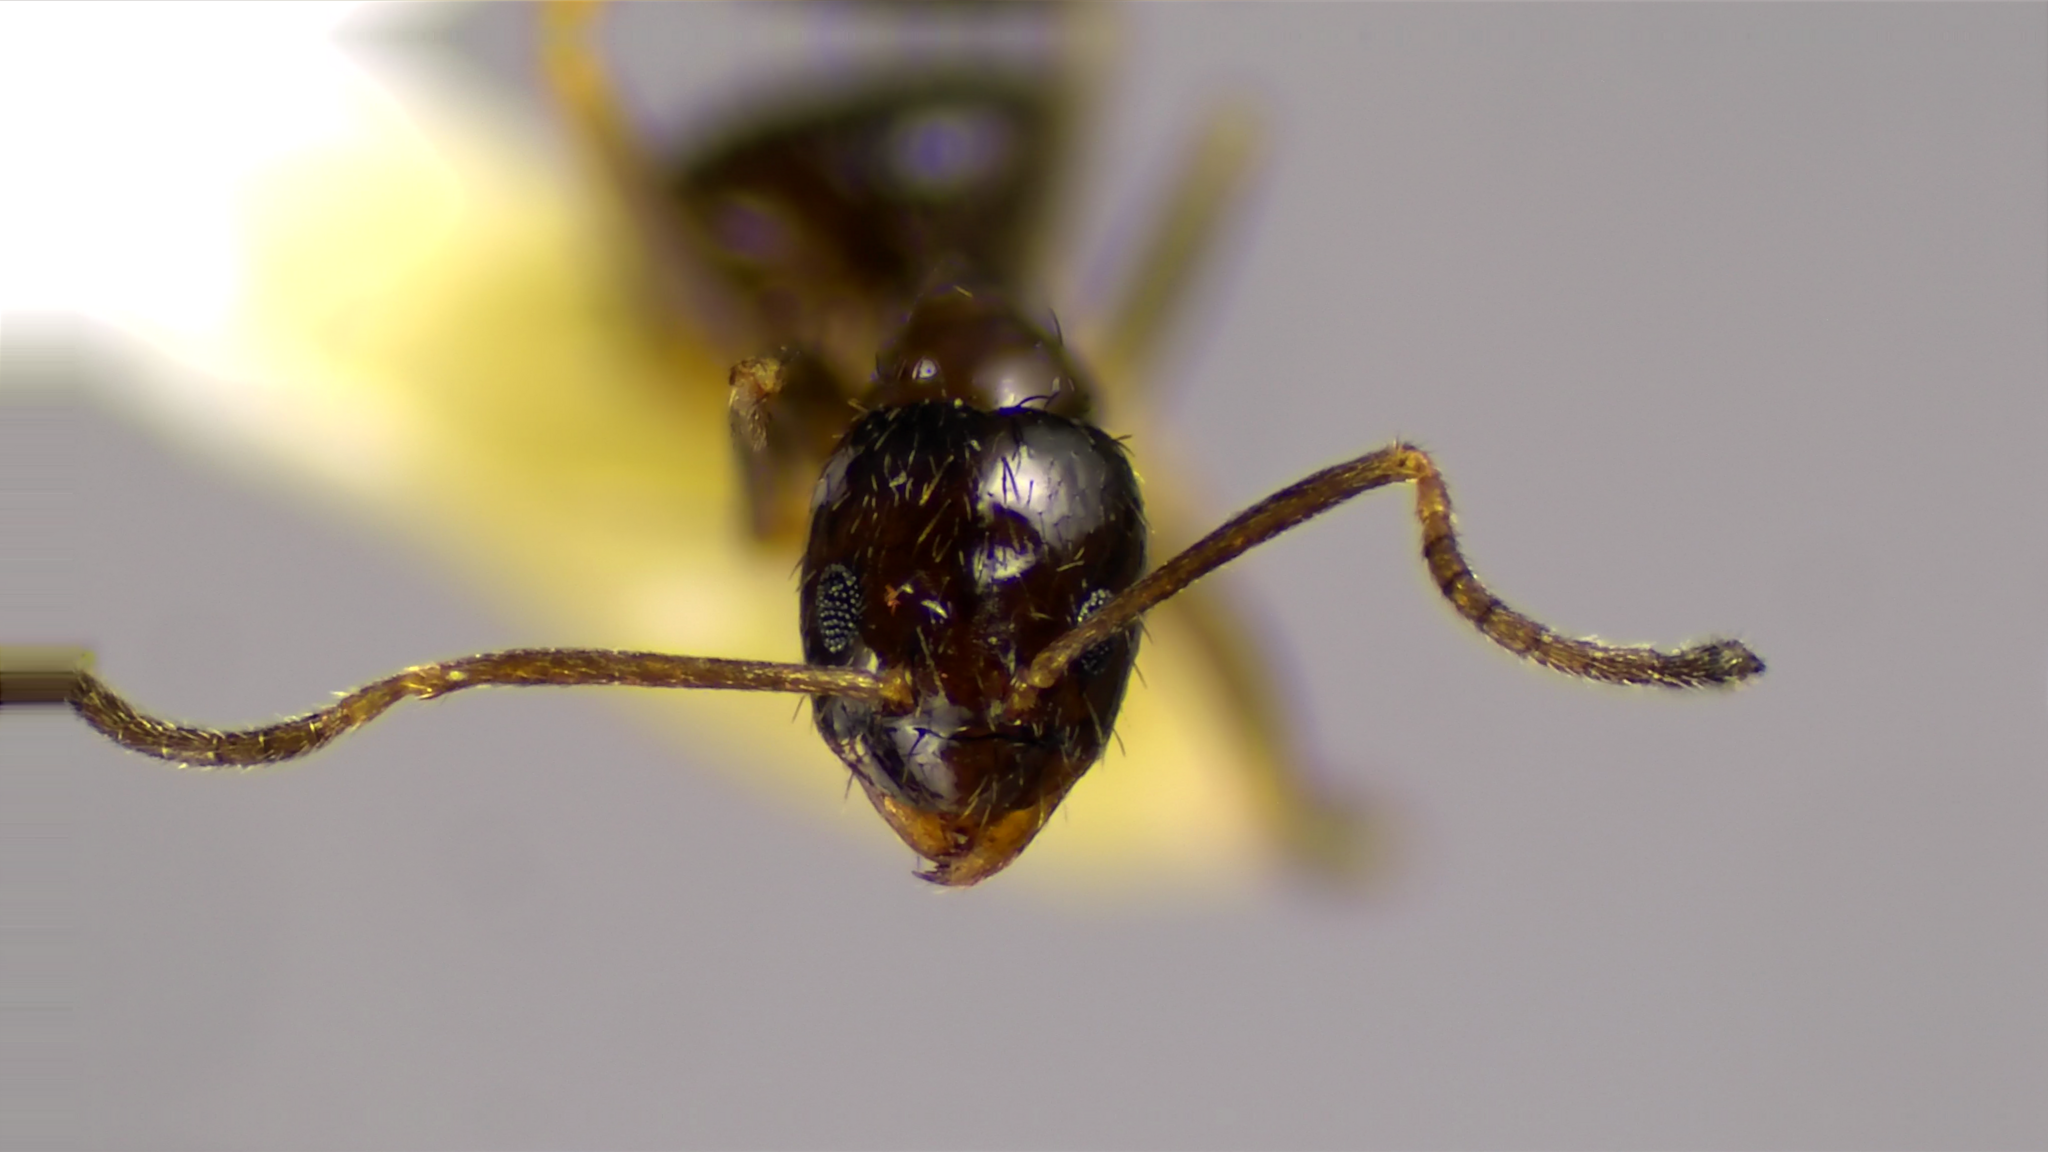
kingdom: Animalia
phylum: Arthropoda
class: Insecta
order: Hymenoptera
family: Formicidae
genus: Nylanderia
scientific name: Nylanderia parvula
